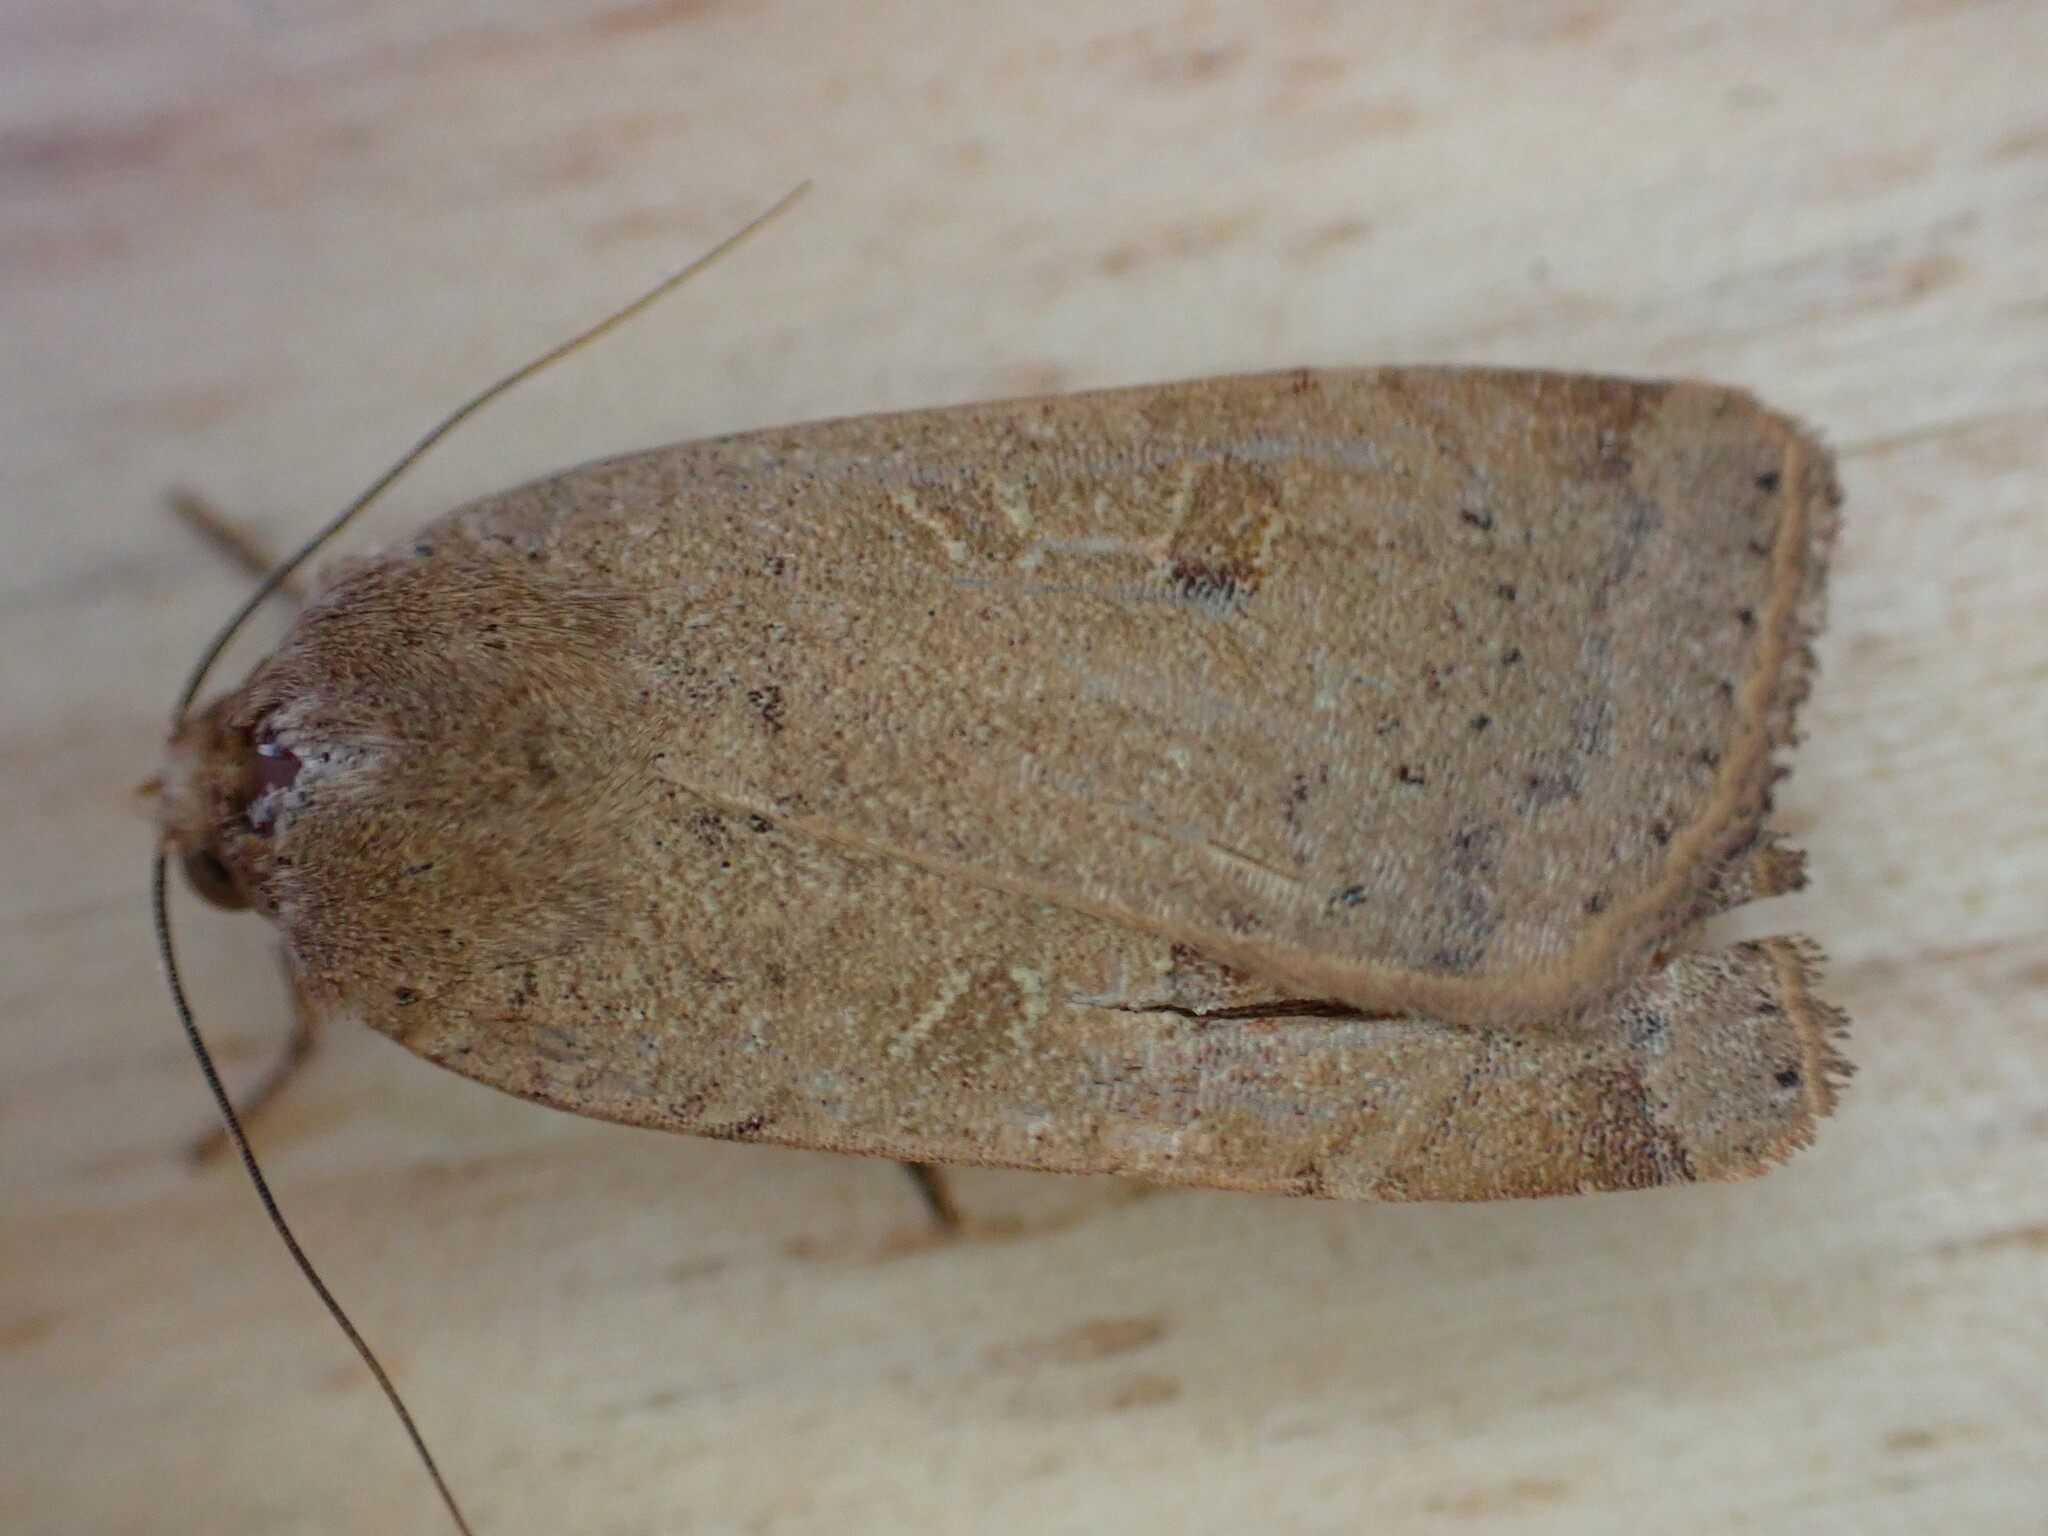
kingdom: Animalia
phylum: Arthropoda
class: Insecta
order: Lepidoptera
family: Noctuidae
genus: Noctua
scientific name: Noctua comes
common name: Lesser yellow underwing
